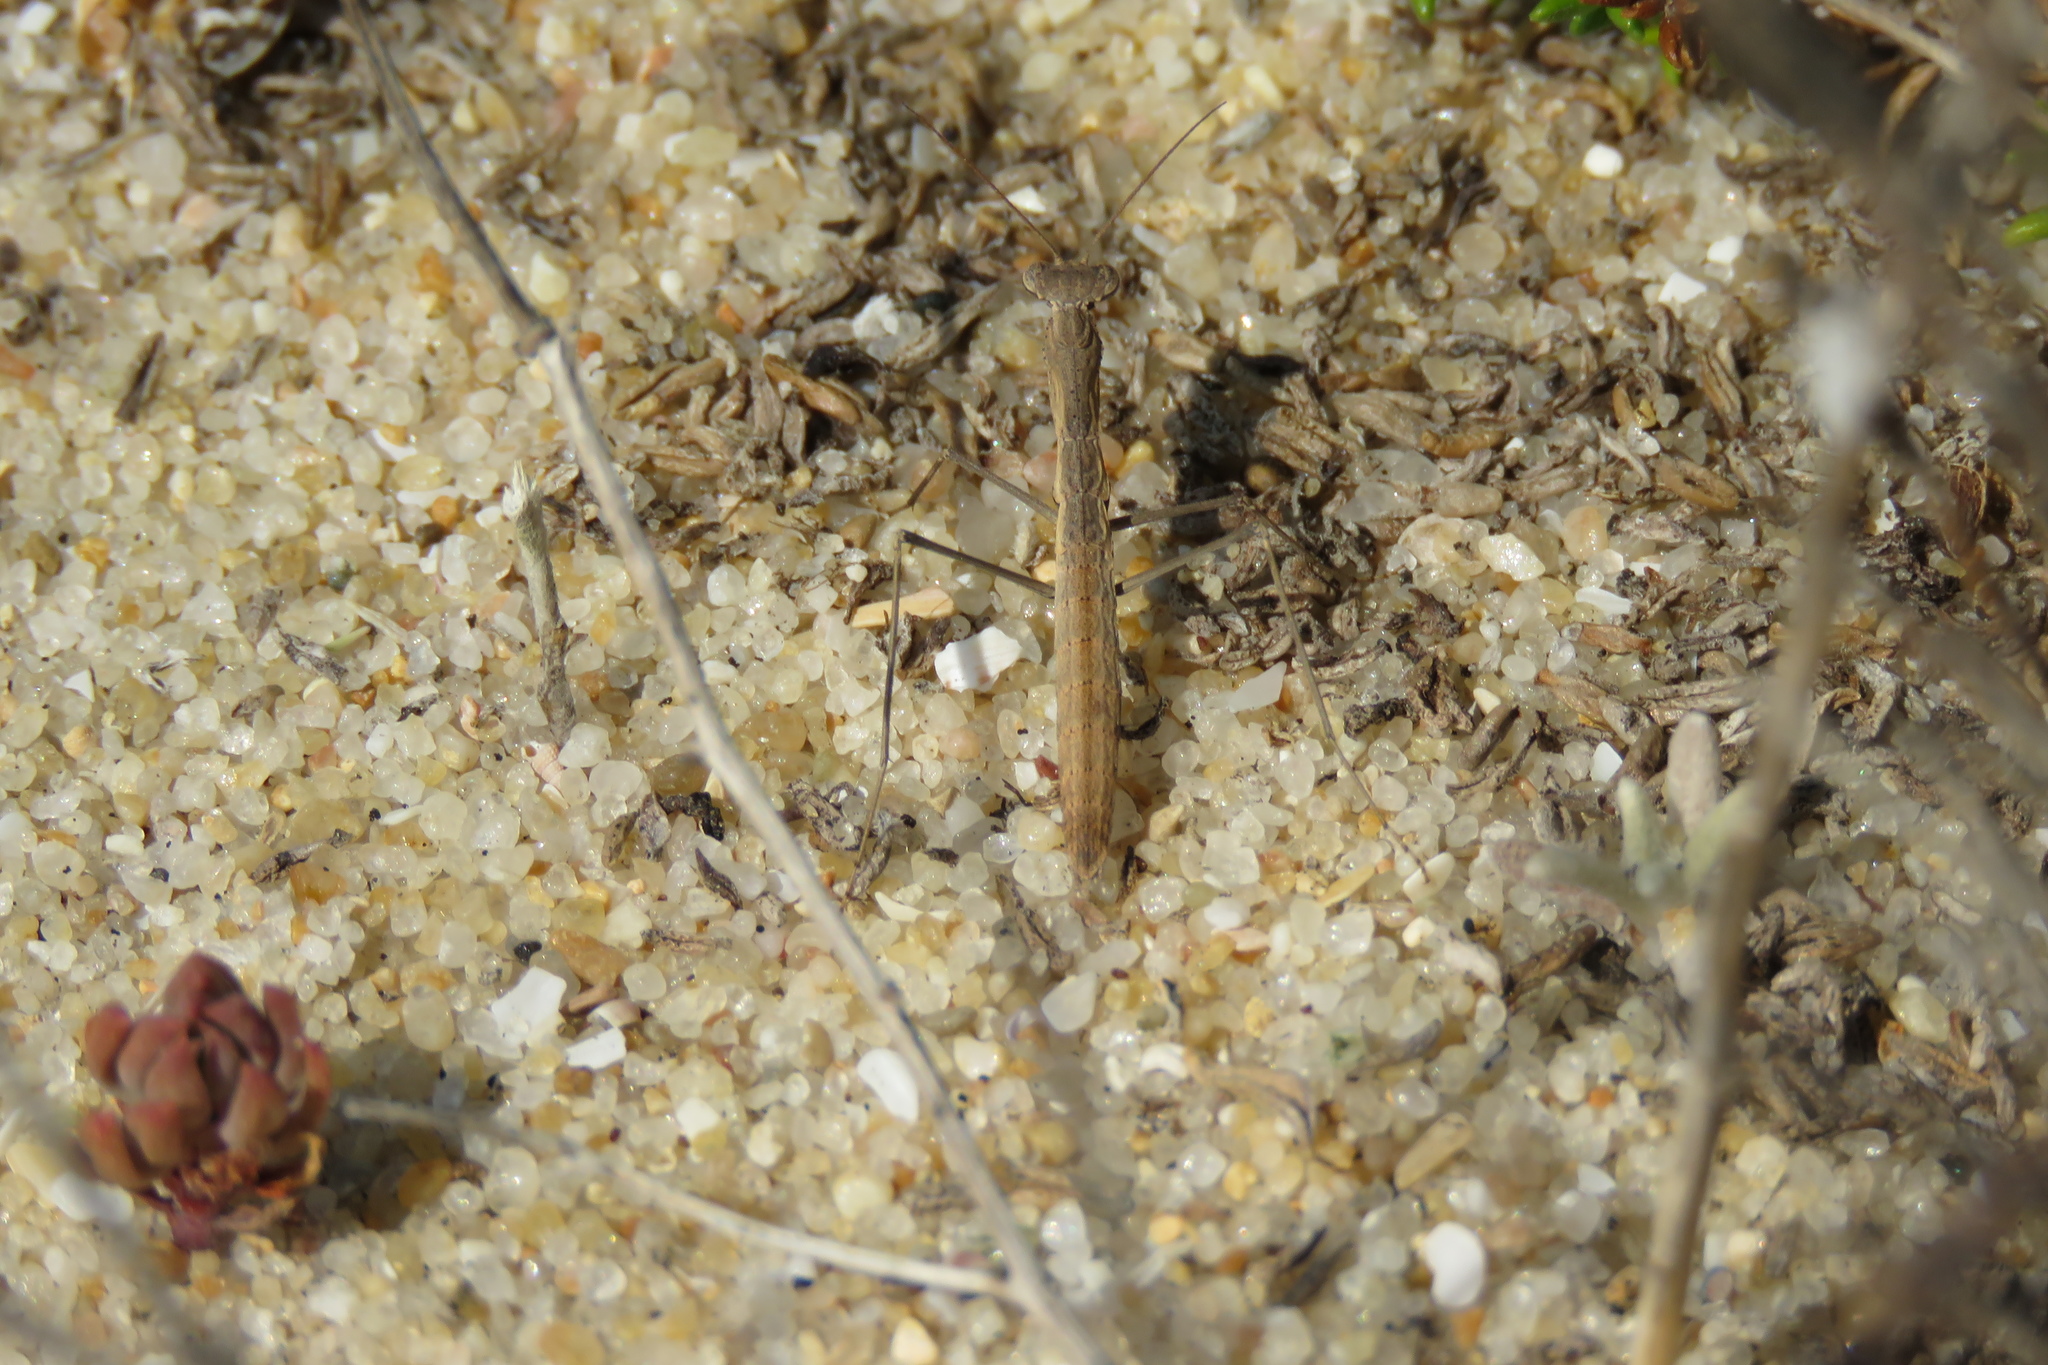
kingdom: Animalia
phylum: Arthropoda
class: Insecta
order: Mantodea
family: Rivetinidae
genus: Geomantis
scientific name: Geomantis larvoides
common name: Wingless ground mantis
